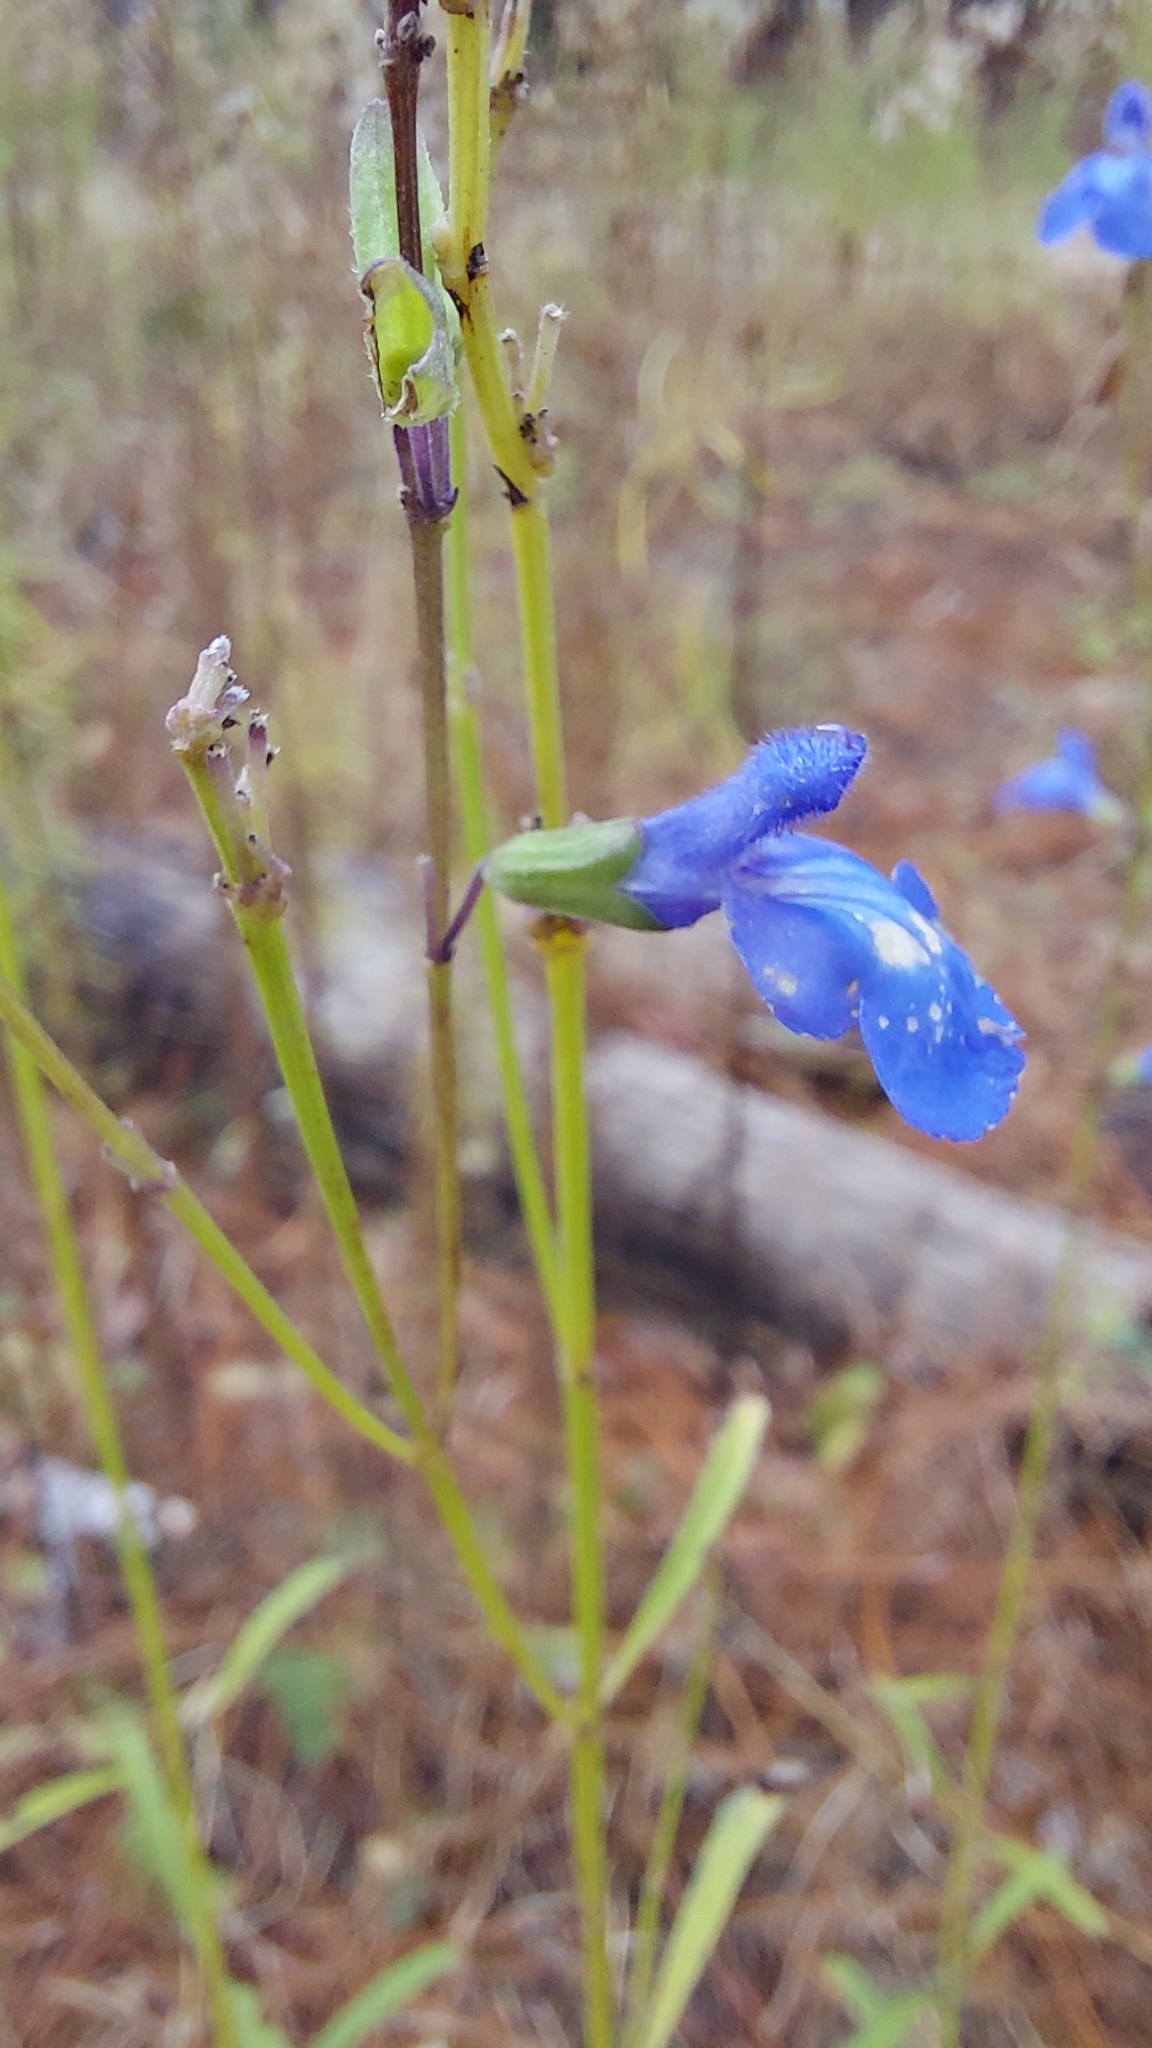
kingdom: Plantae
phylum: Tracheophyta
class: Magnoliopsida
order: Lamiales
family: Lamiaceae
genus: Salvia
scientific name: Salvia azurea
